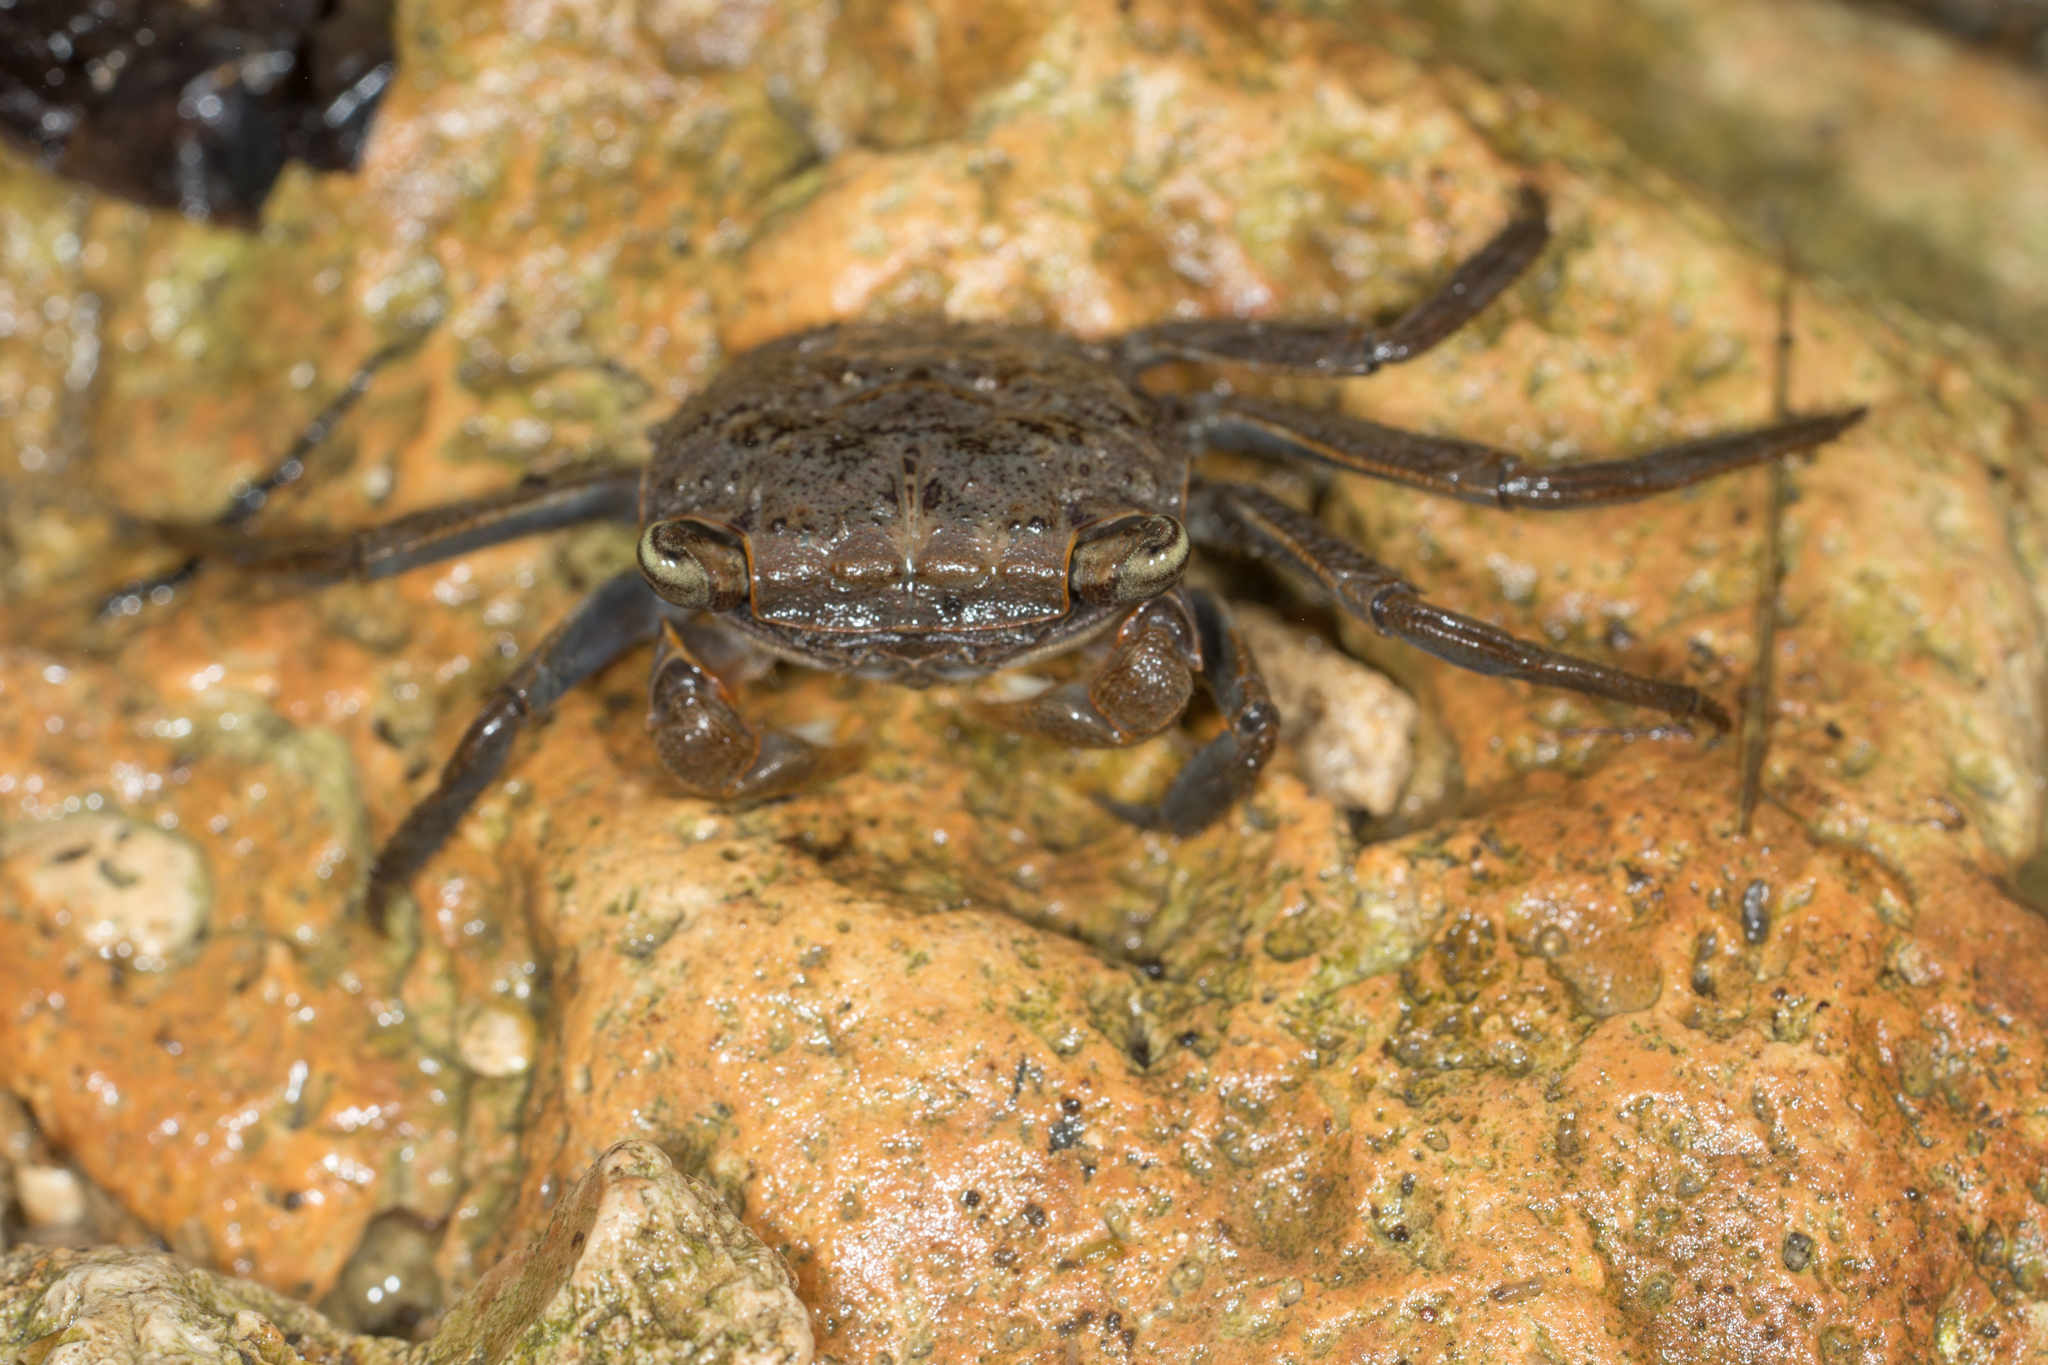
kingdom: Animalia
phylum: Arthropoda
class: Malacostraca
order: Decapoda
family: Sesarmidae
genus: Armases
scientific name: Armases cinereum
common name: Squareback marsh crab
